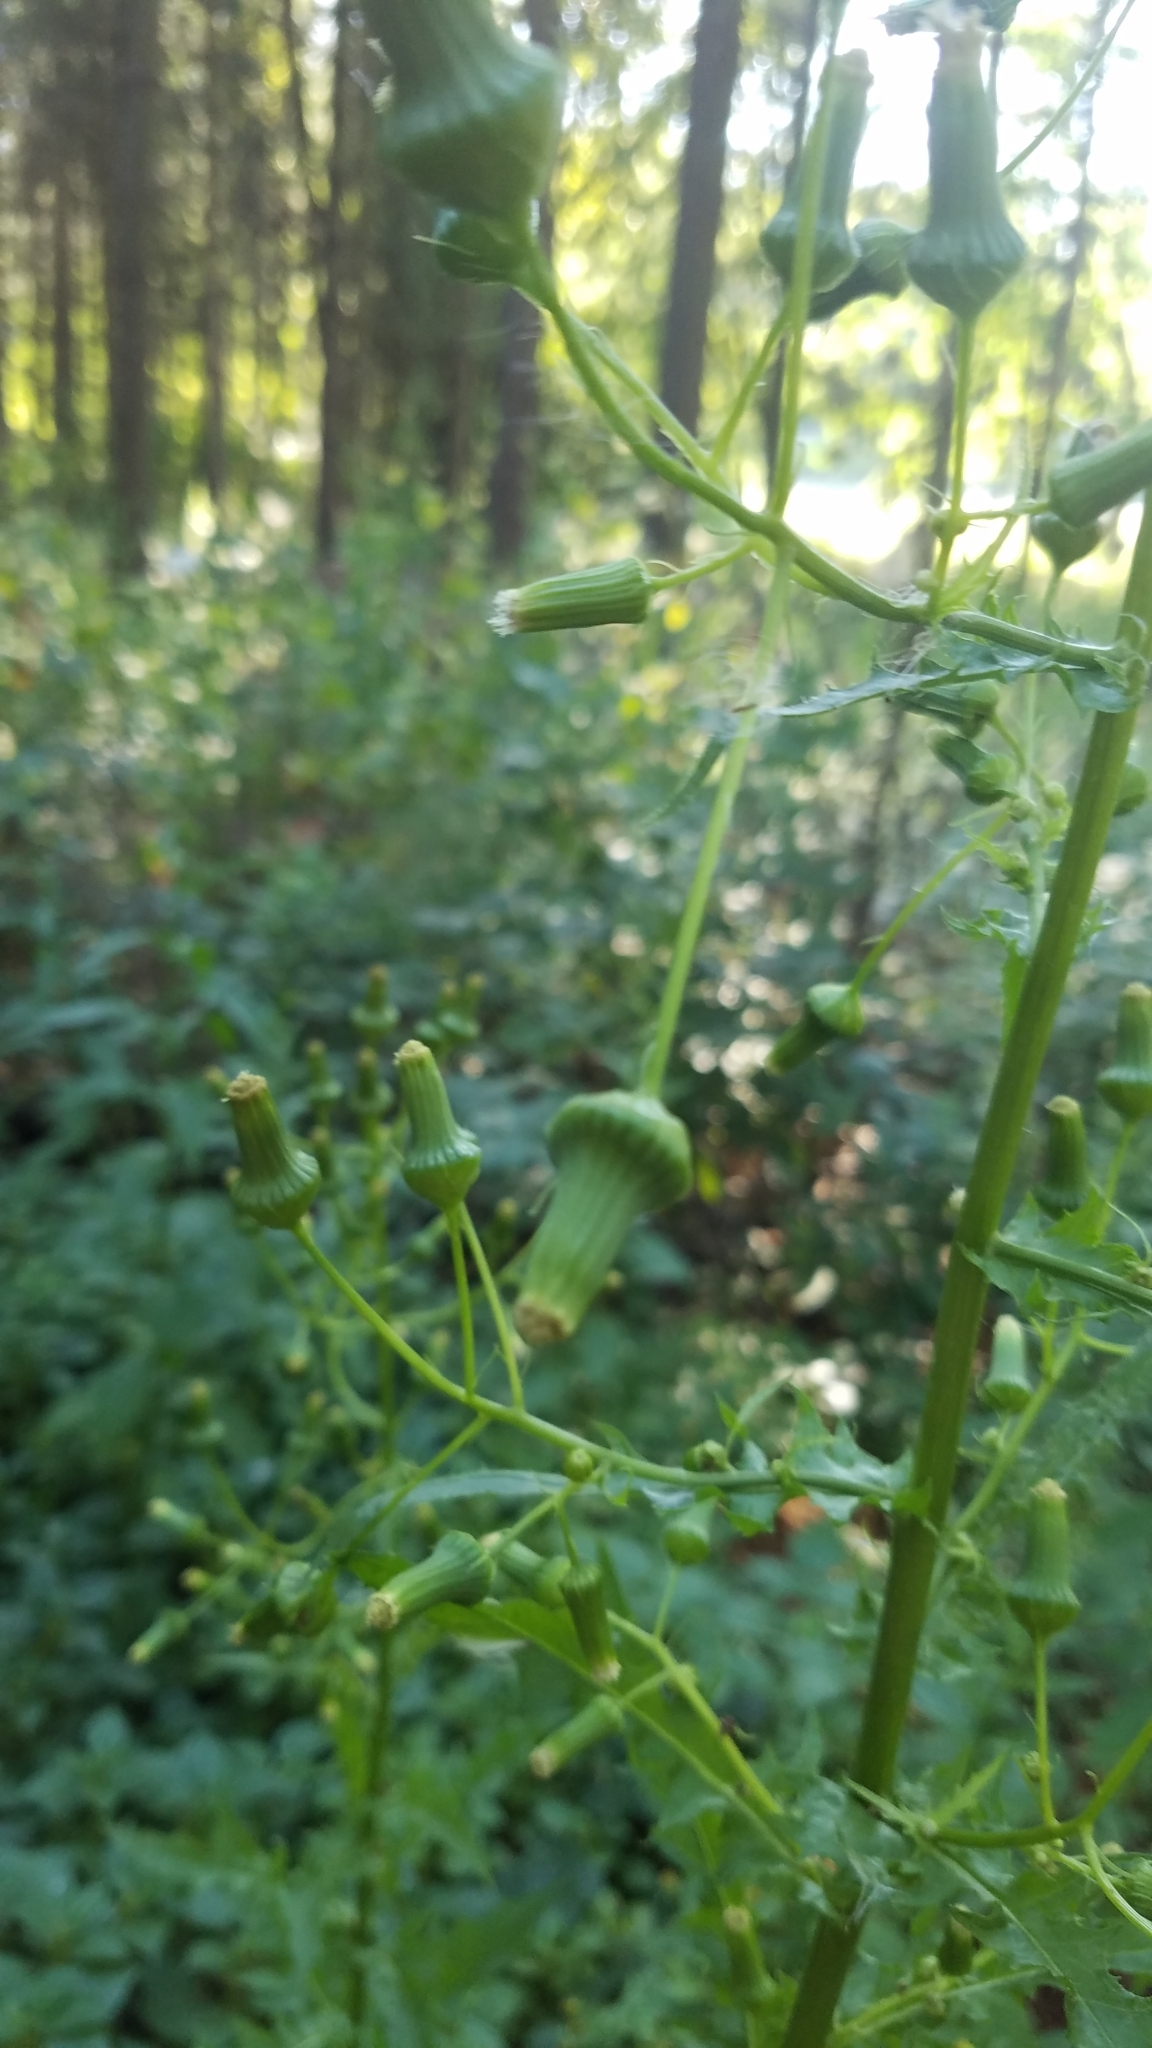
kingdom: Plantae
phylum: Tracheophyta
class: Magnoliopsida
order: Asterales
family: Asteraceae
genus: Erechtites
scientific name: Erechtites hieraciifolius
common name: American burnweed
